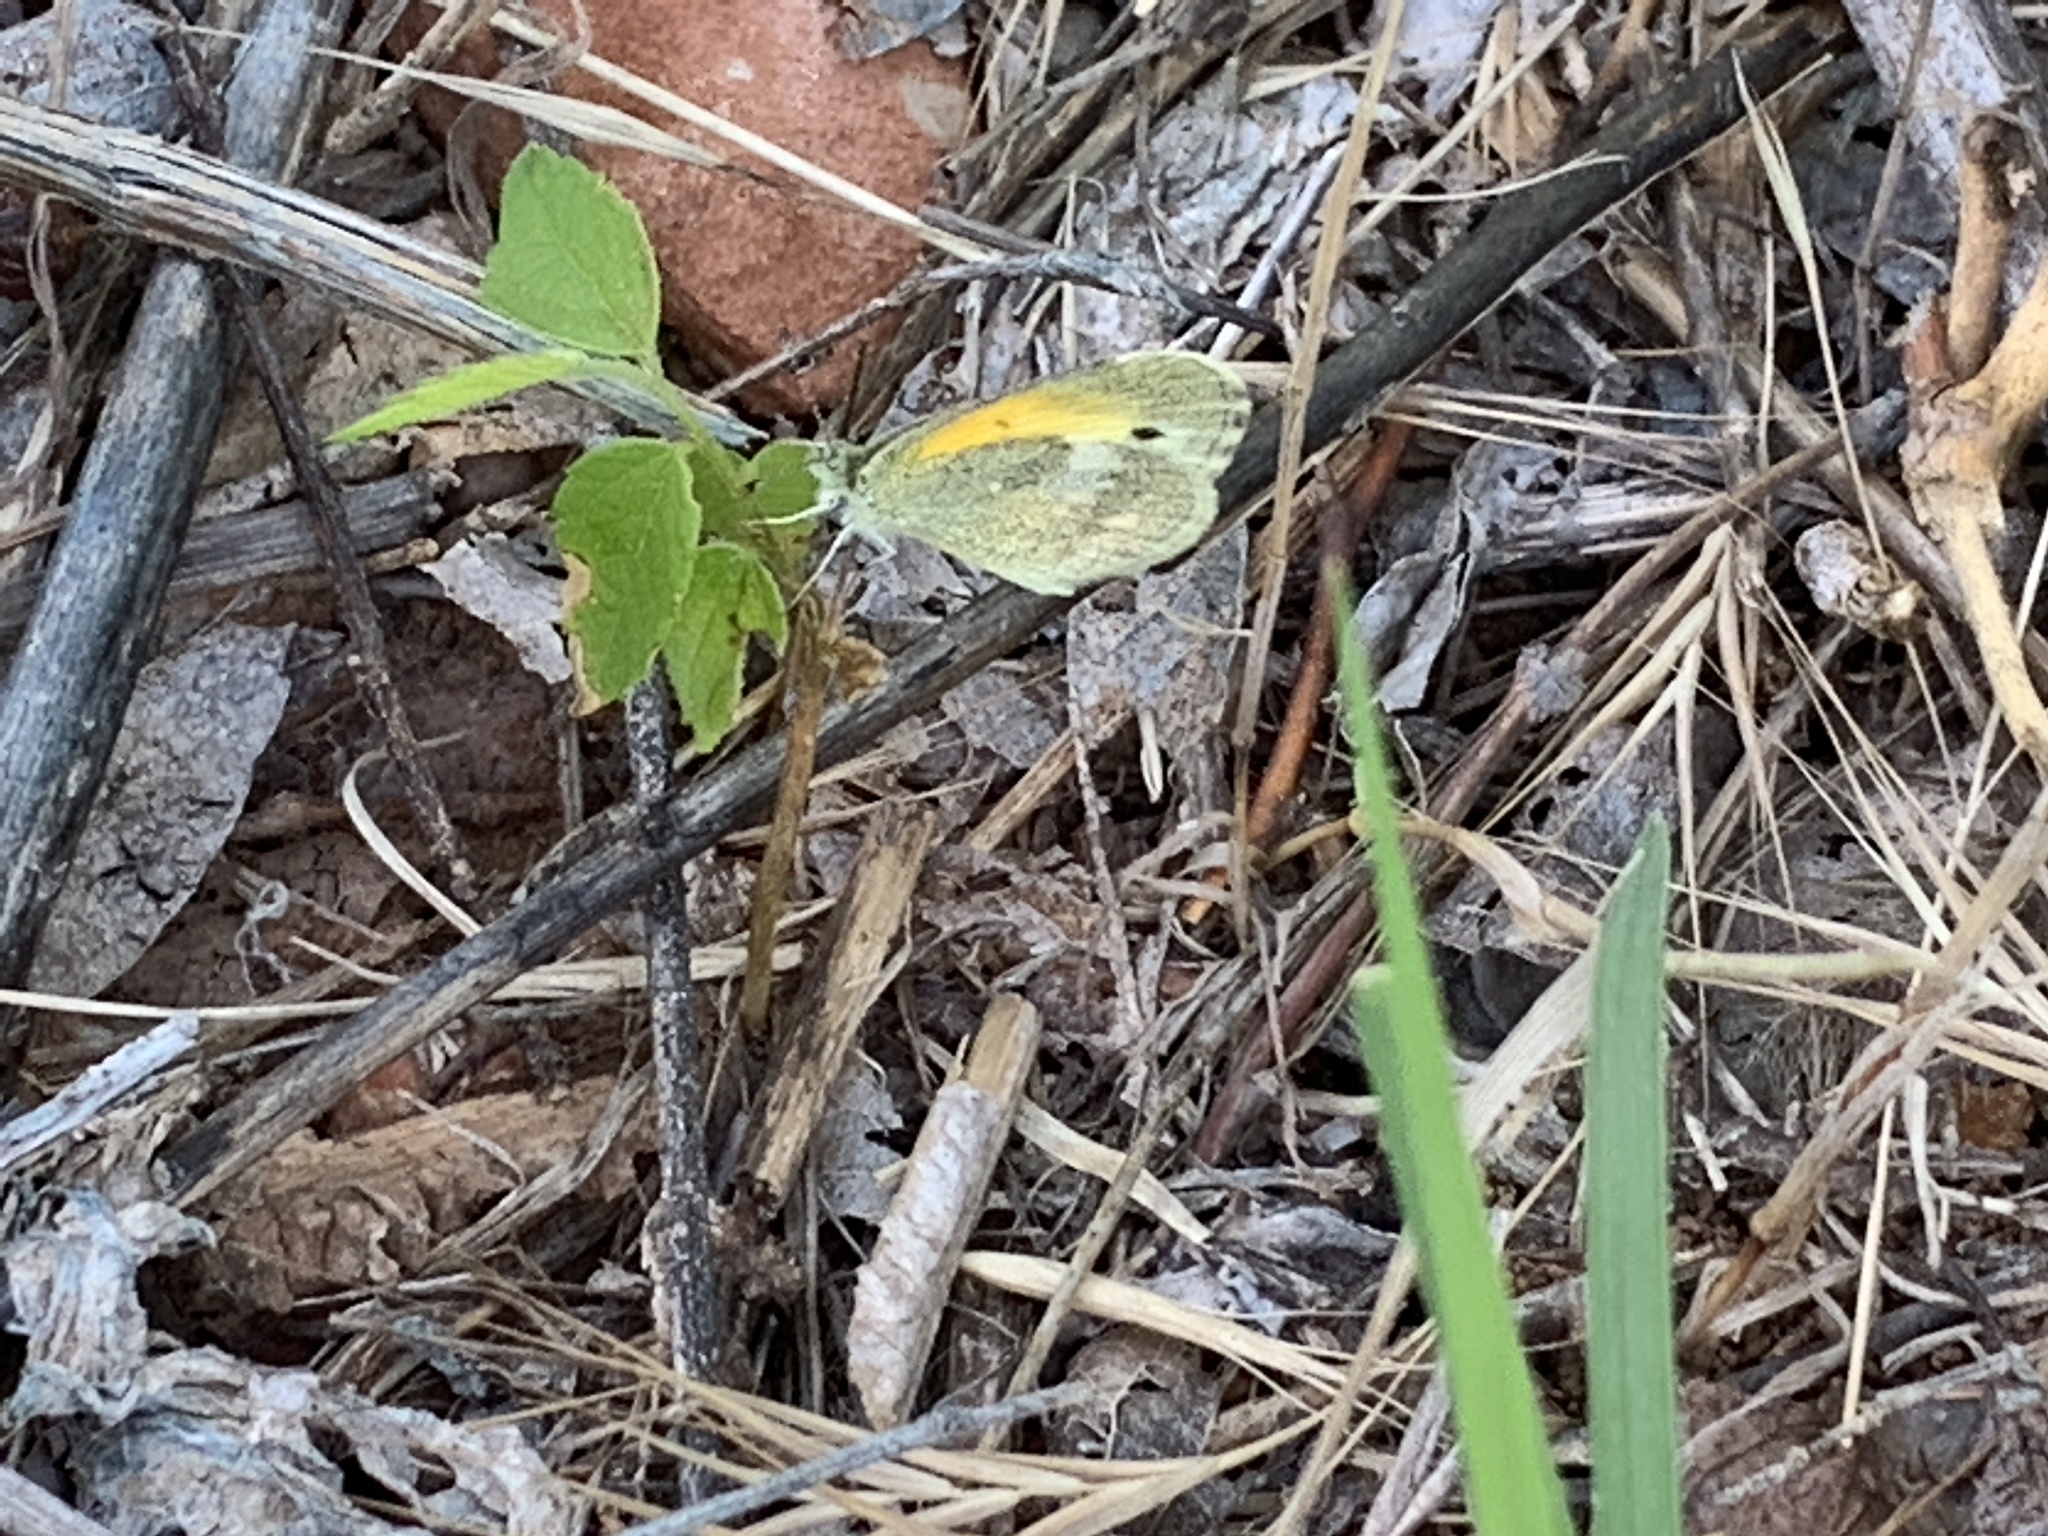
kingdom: Animalia
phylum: Arthropoda
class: Insecta
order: Lepidoptera
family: Pieridae
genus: Nathalis
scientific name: Nathalis iole
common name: Dainty sulphur
